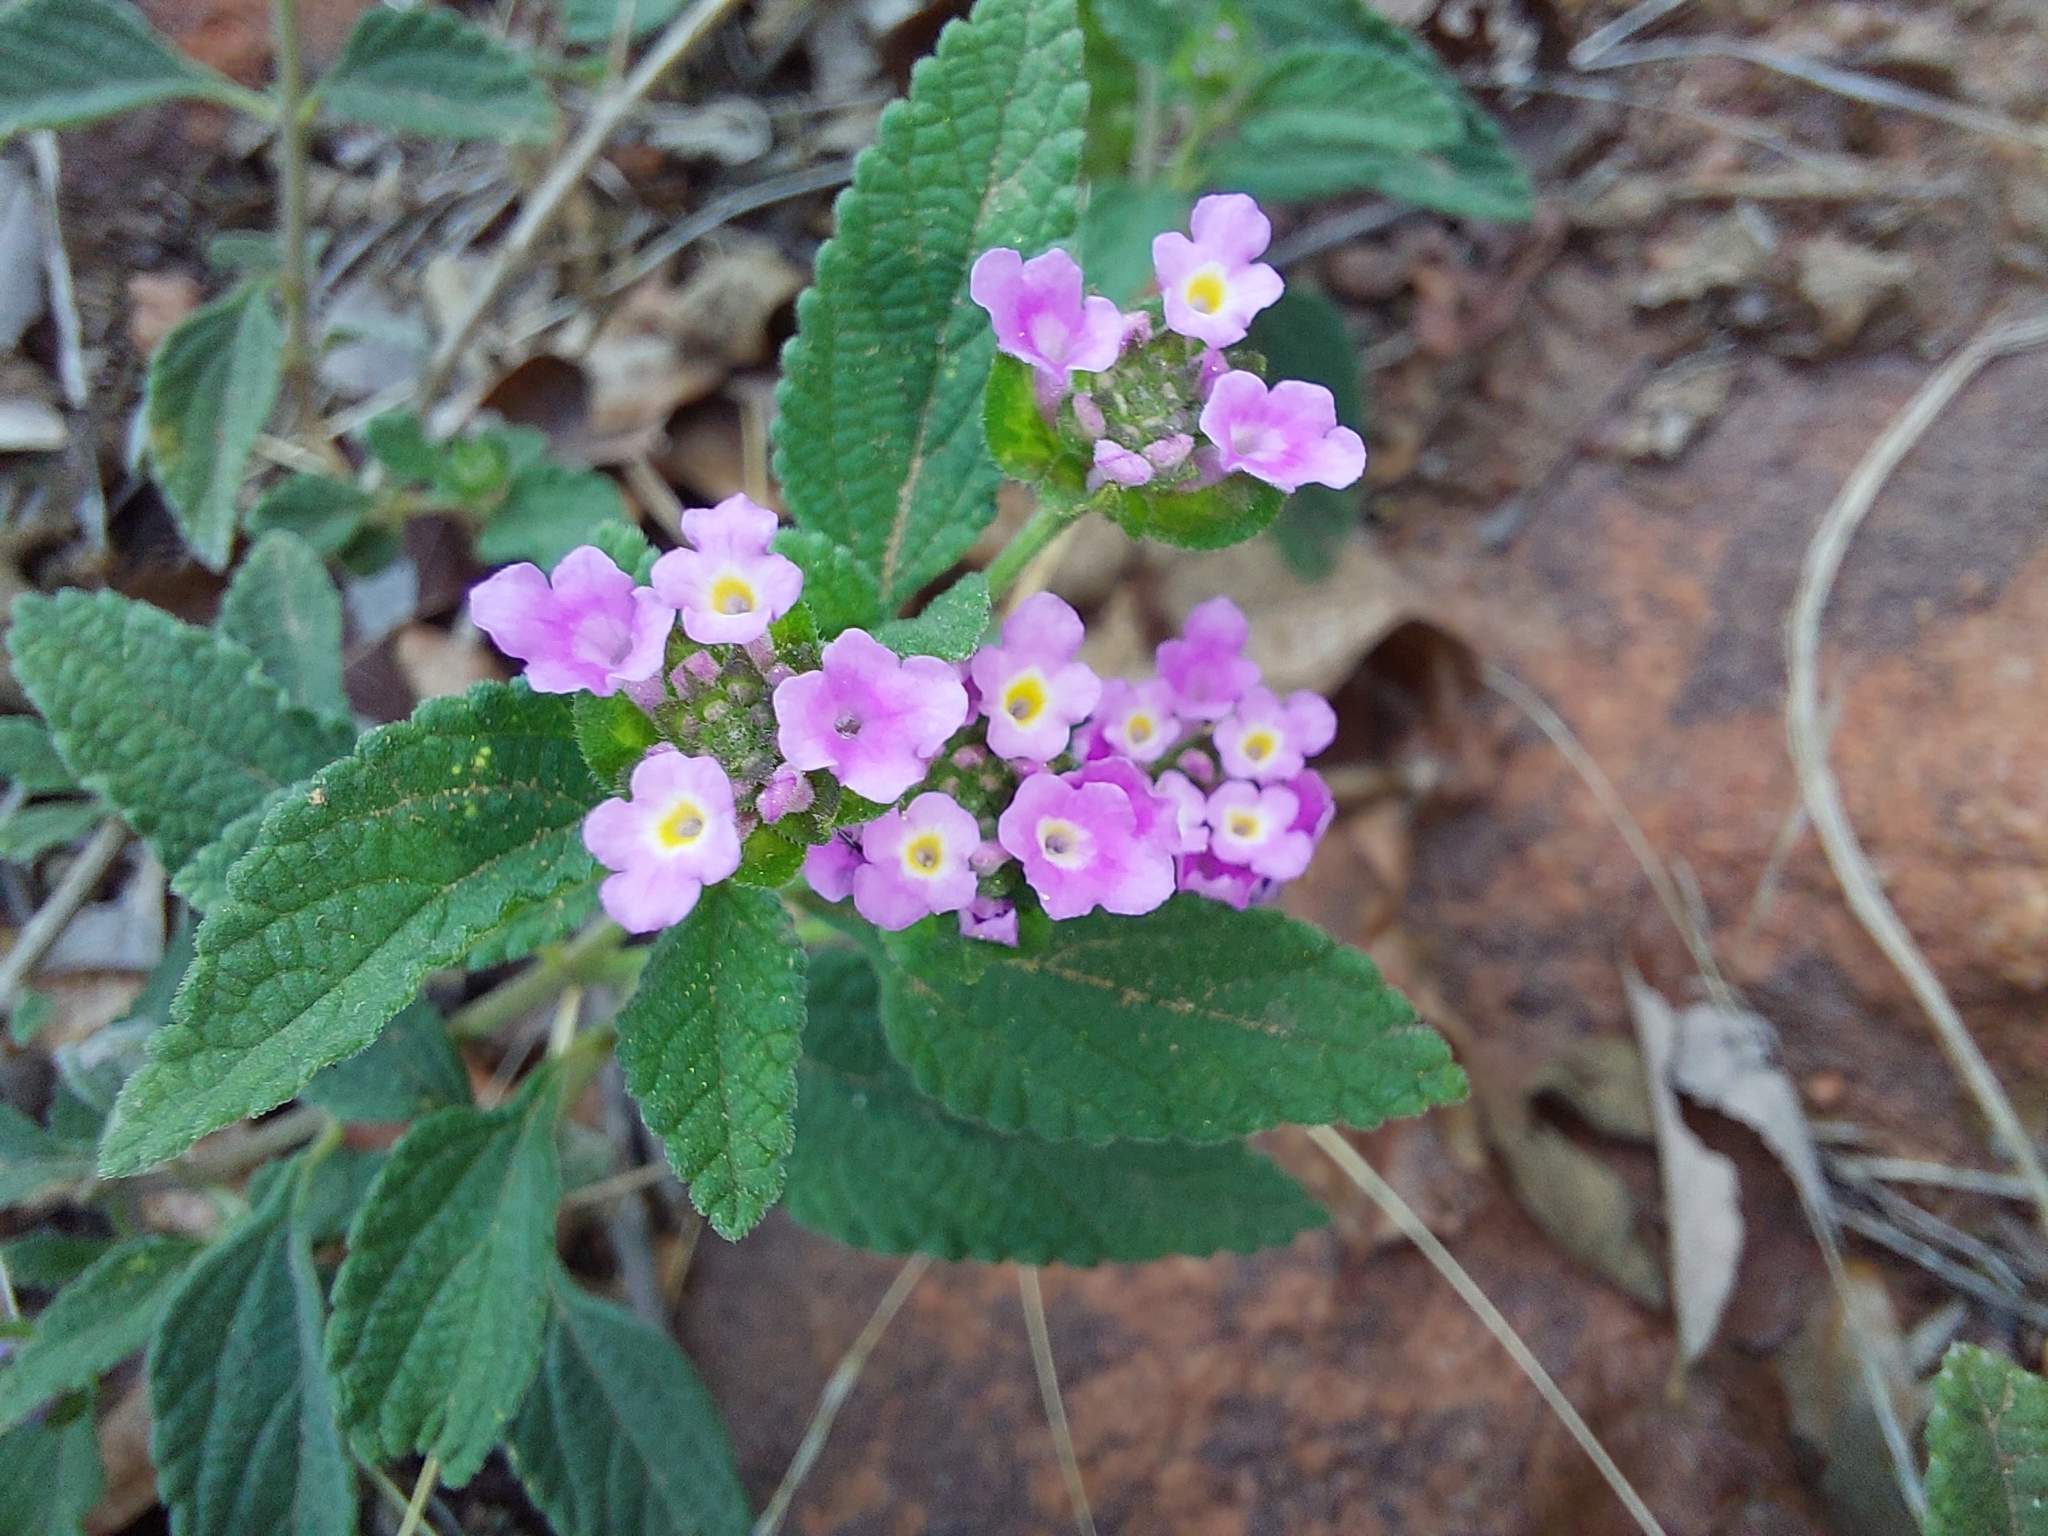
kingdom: Plantae
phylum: Tracheophyta
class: Magnoliopsida
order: Lamiales
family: Verbenaceae
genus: Lantana
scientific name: Lantana rugosa
